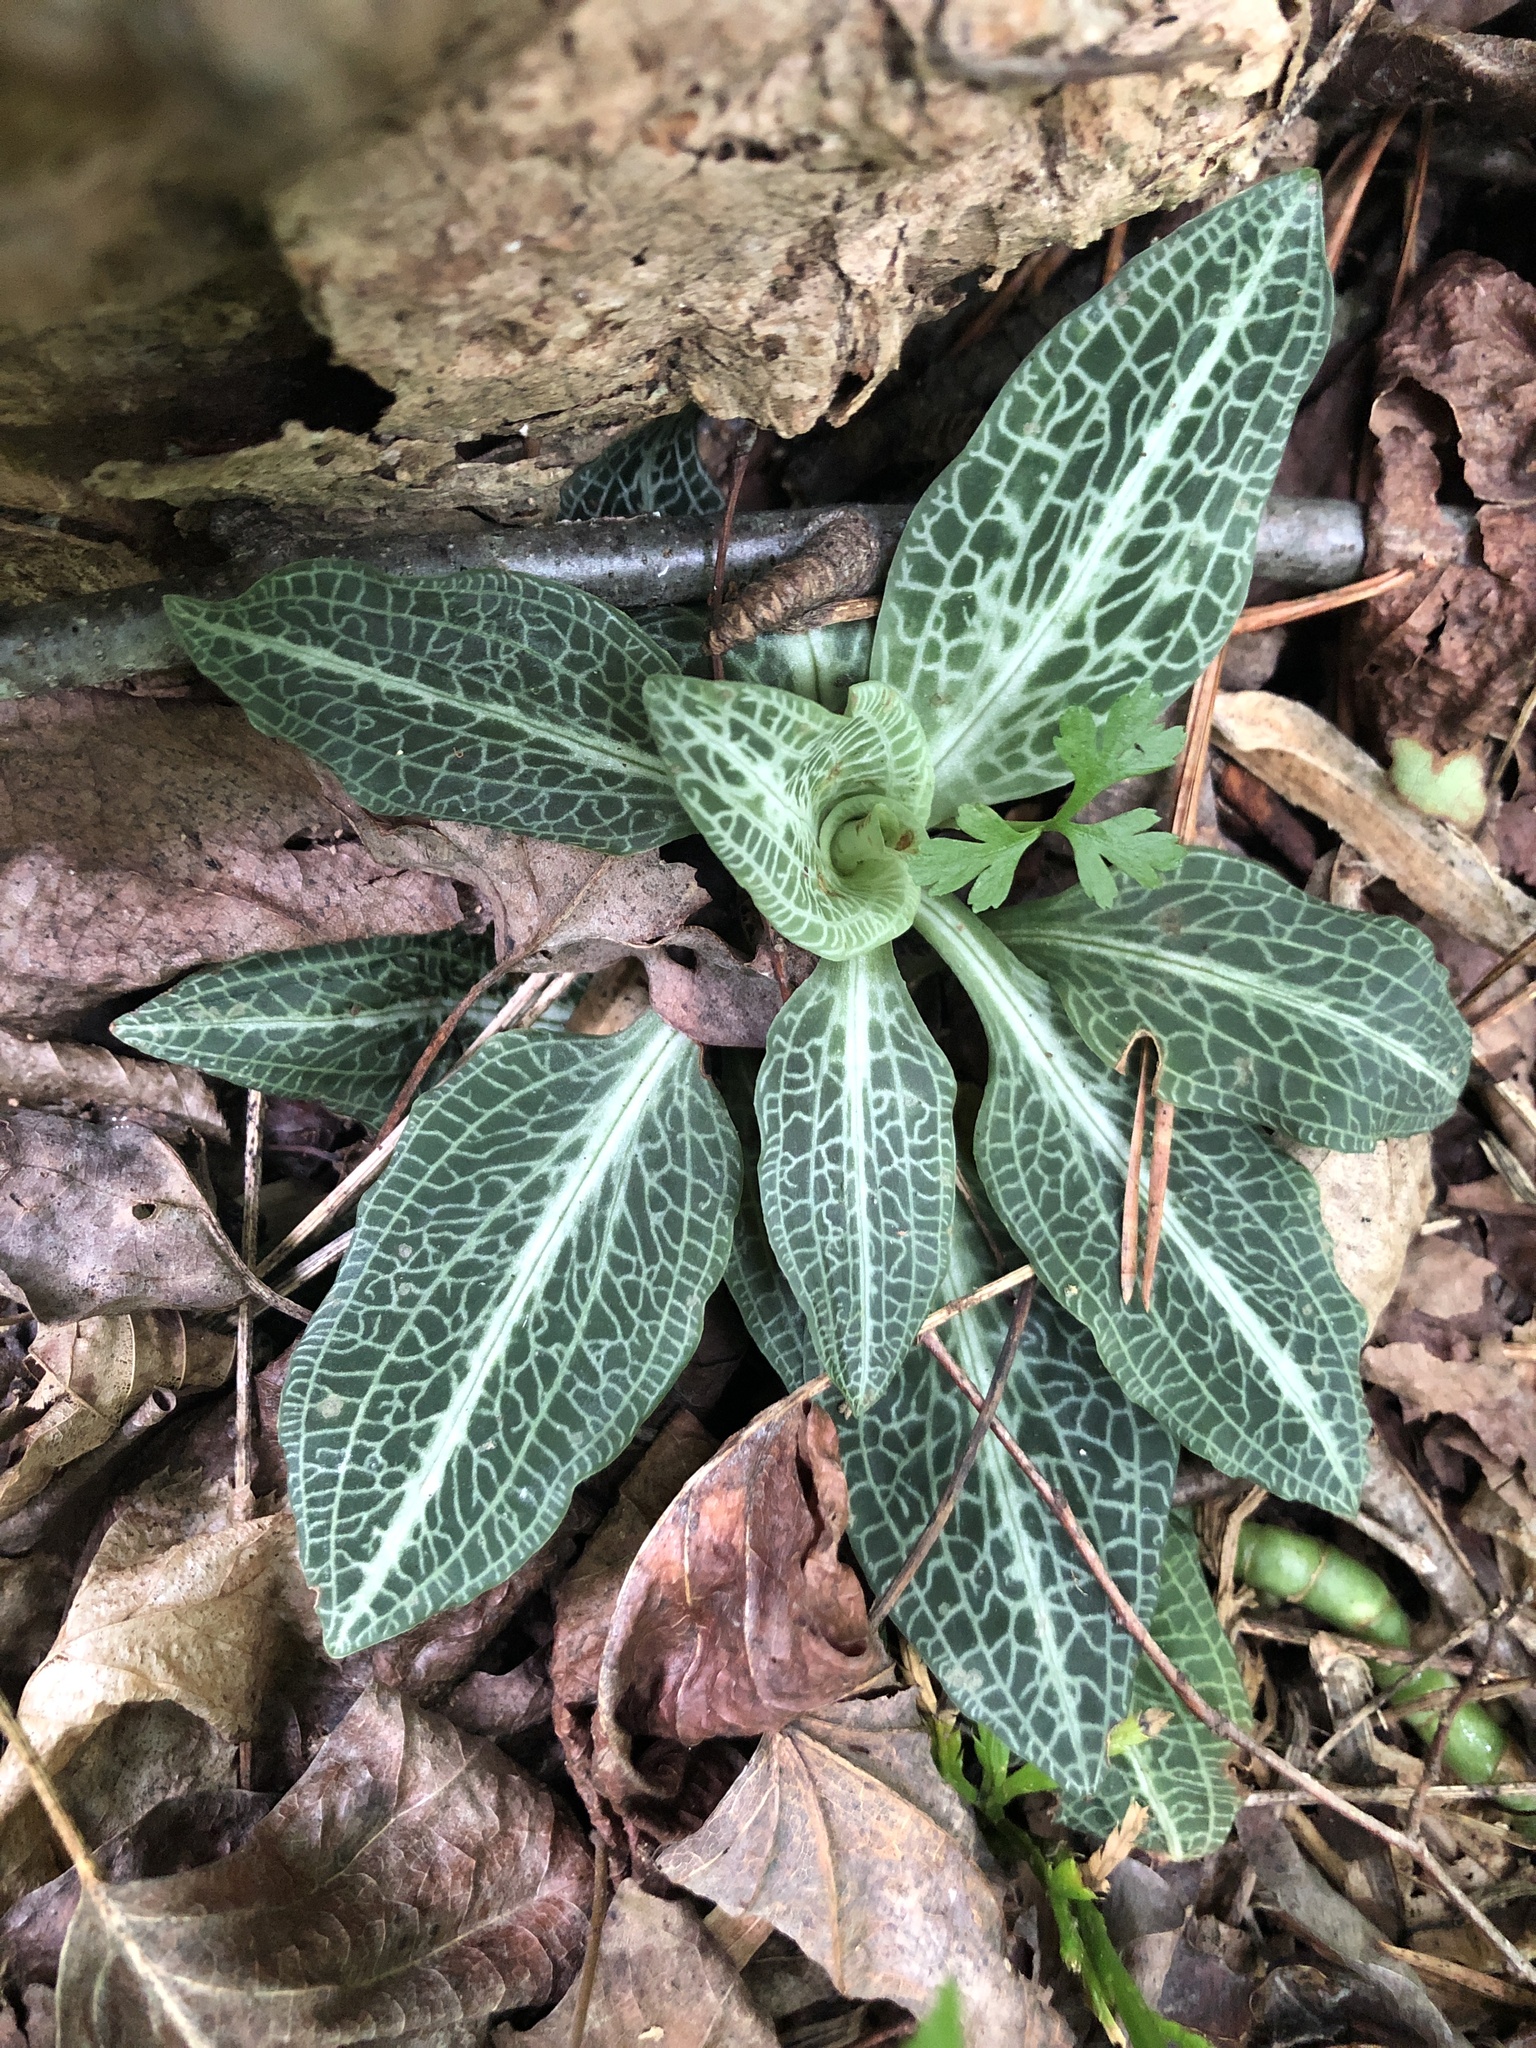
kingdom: Plantae
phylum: Tracheophyta
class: Liliopsida
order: Asparagales
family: Orchidaceae
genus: Goodyera
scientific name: Goodyera pubescens
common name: Downy rattlesnake-plantain
